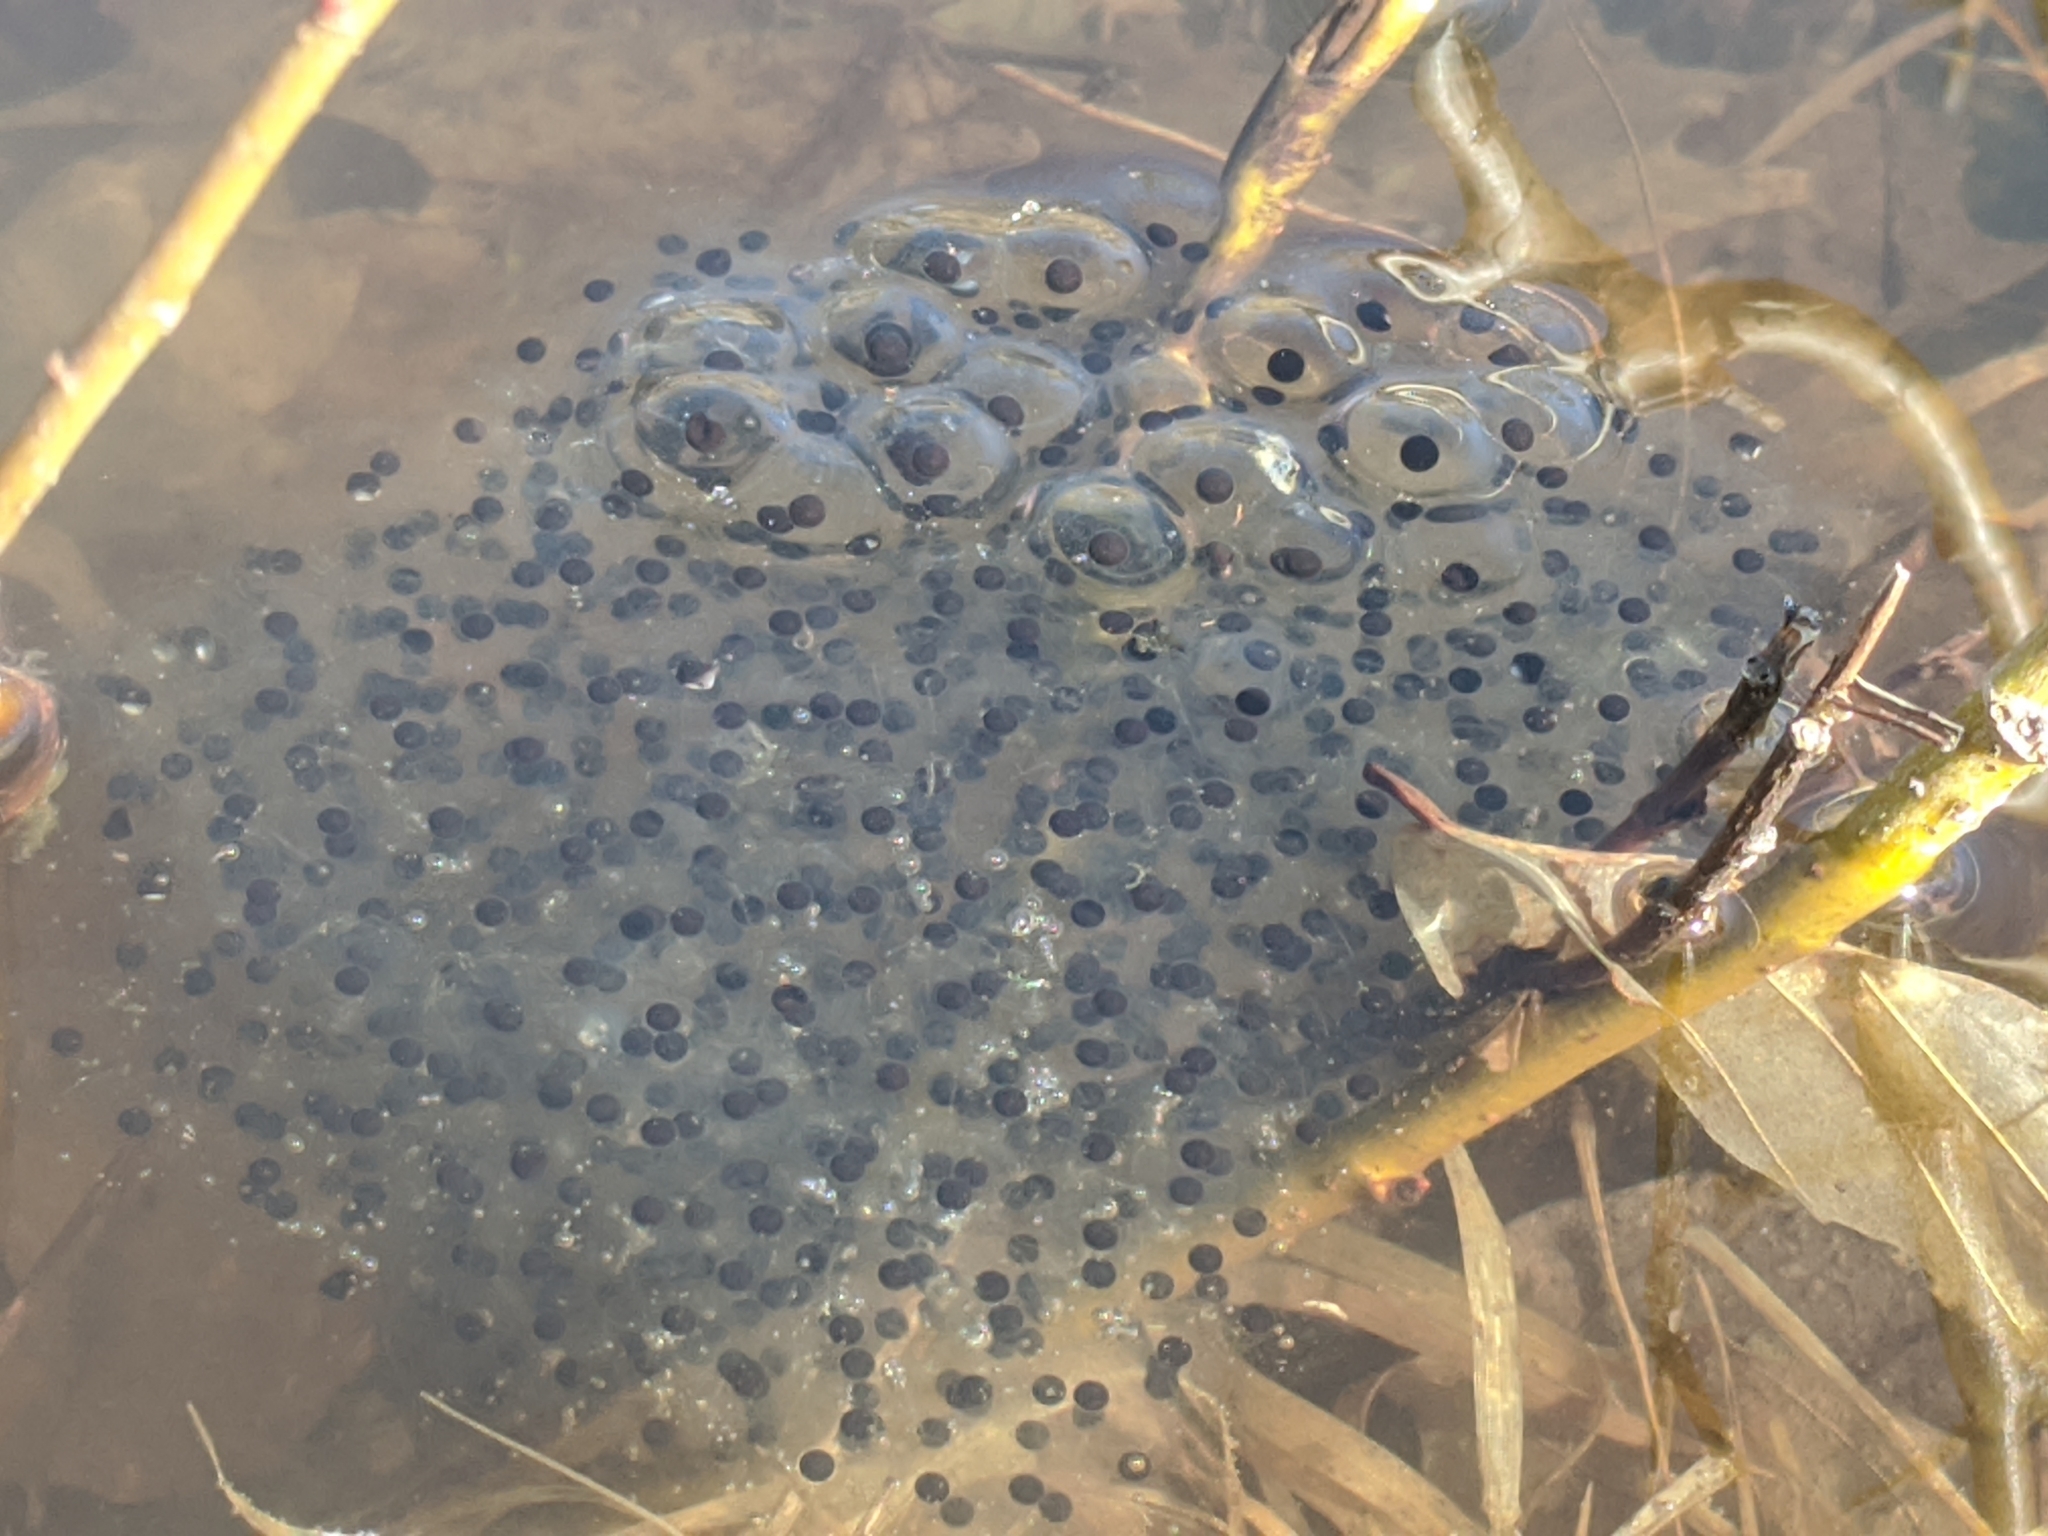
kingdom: Animalia
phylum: Chordata
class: Amphibia
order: Anura
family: Ranidae
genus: Lithobates
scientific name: Lithobates sylvaticus
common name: Wood frog
